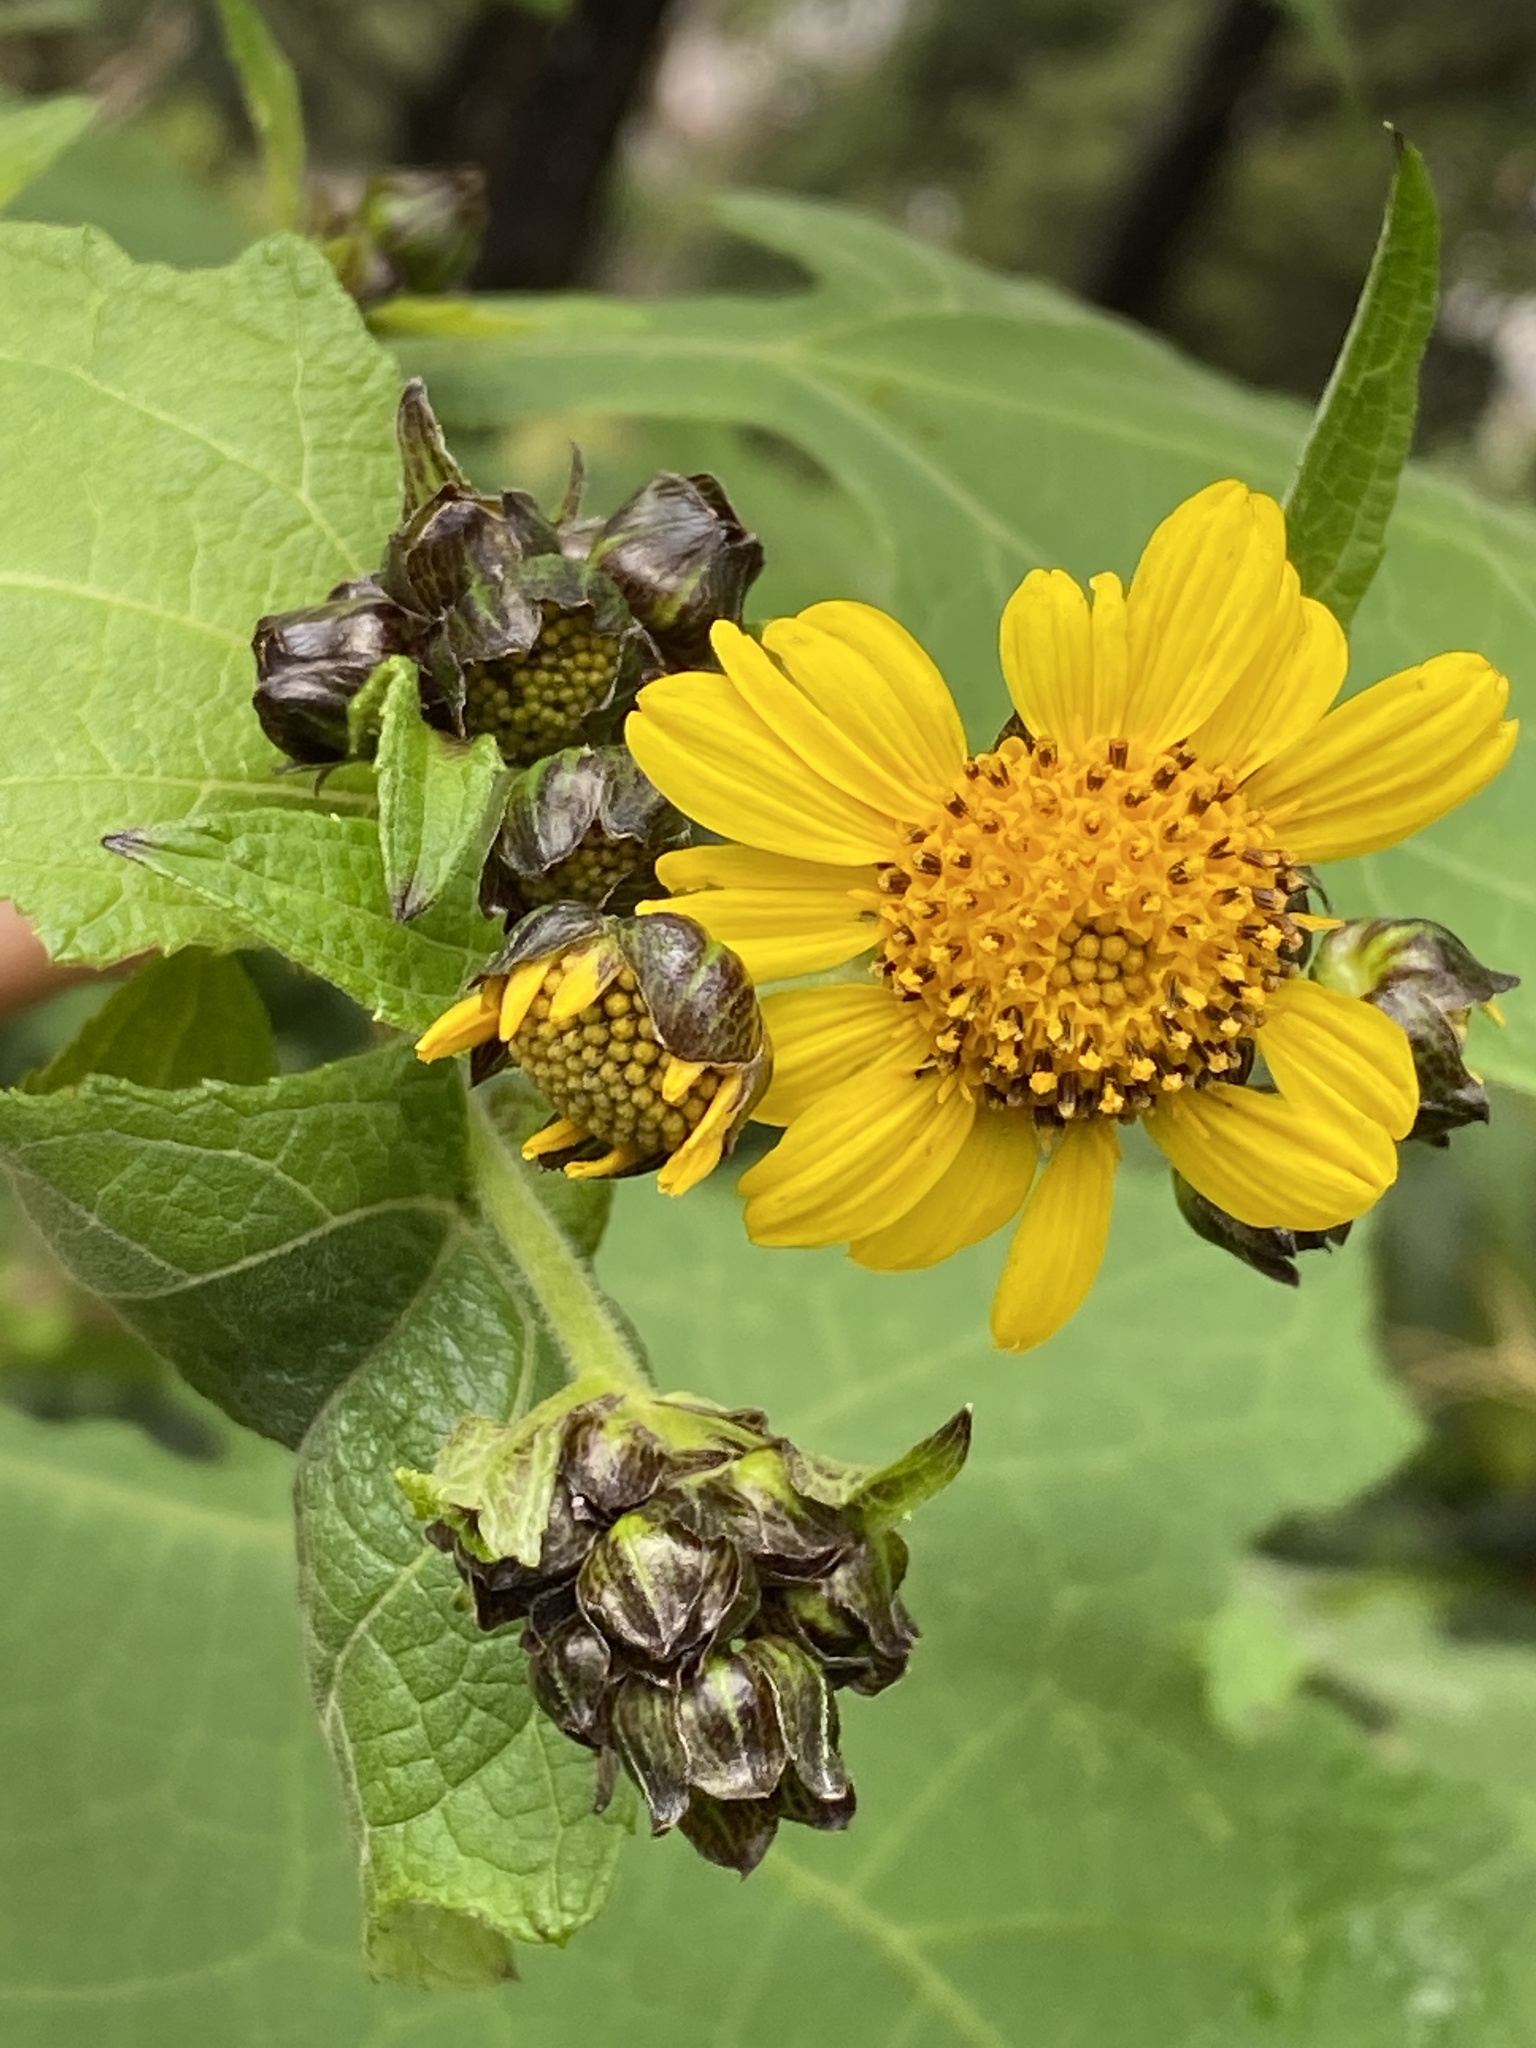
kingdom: Plantae
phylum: Tracheophyta
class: Magnoliopsida
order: Asterales
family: Asteraceae
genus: Smallanthus
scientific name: Smallanthus maculatus
